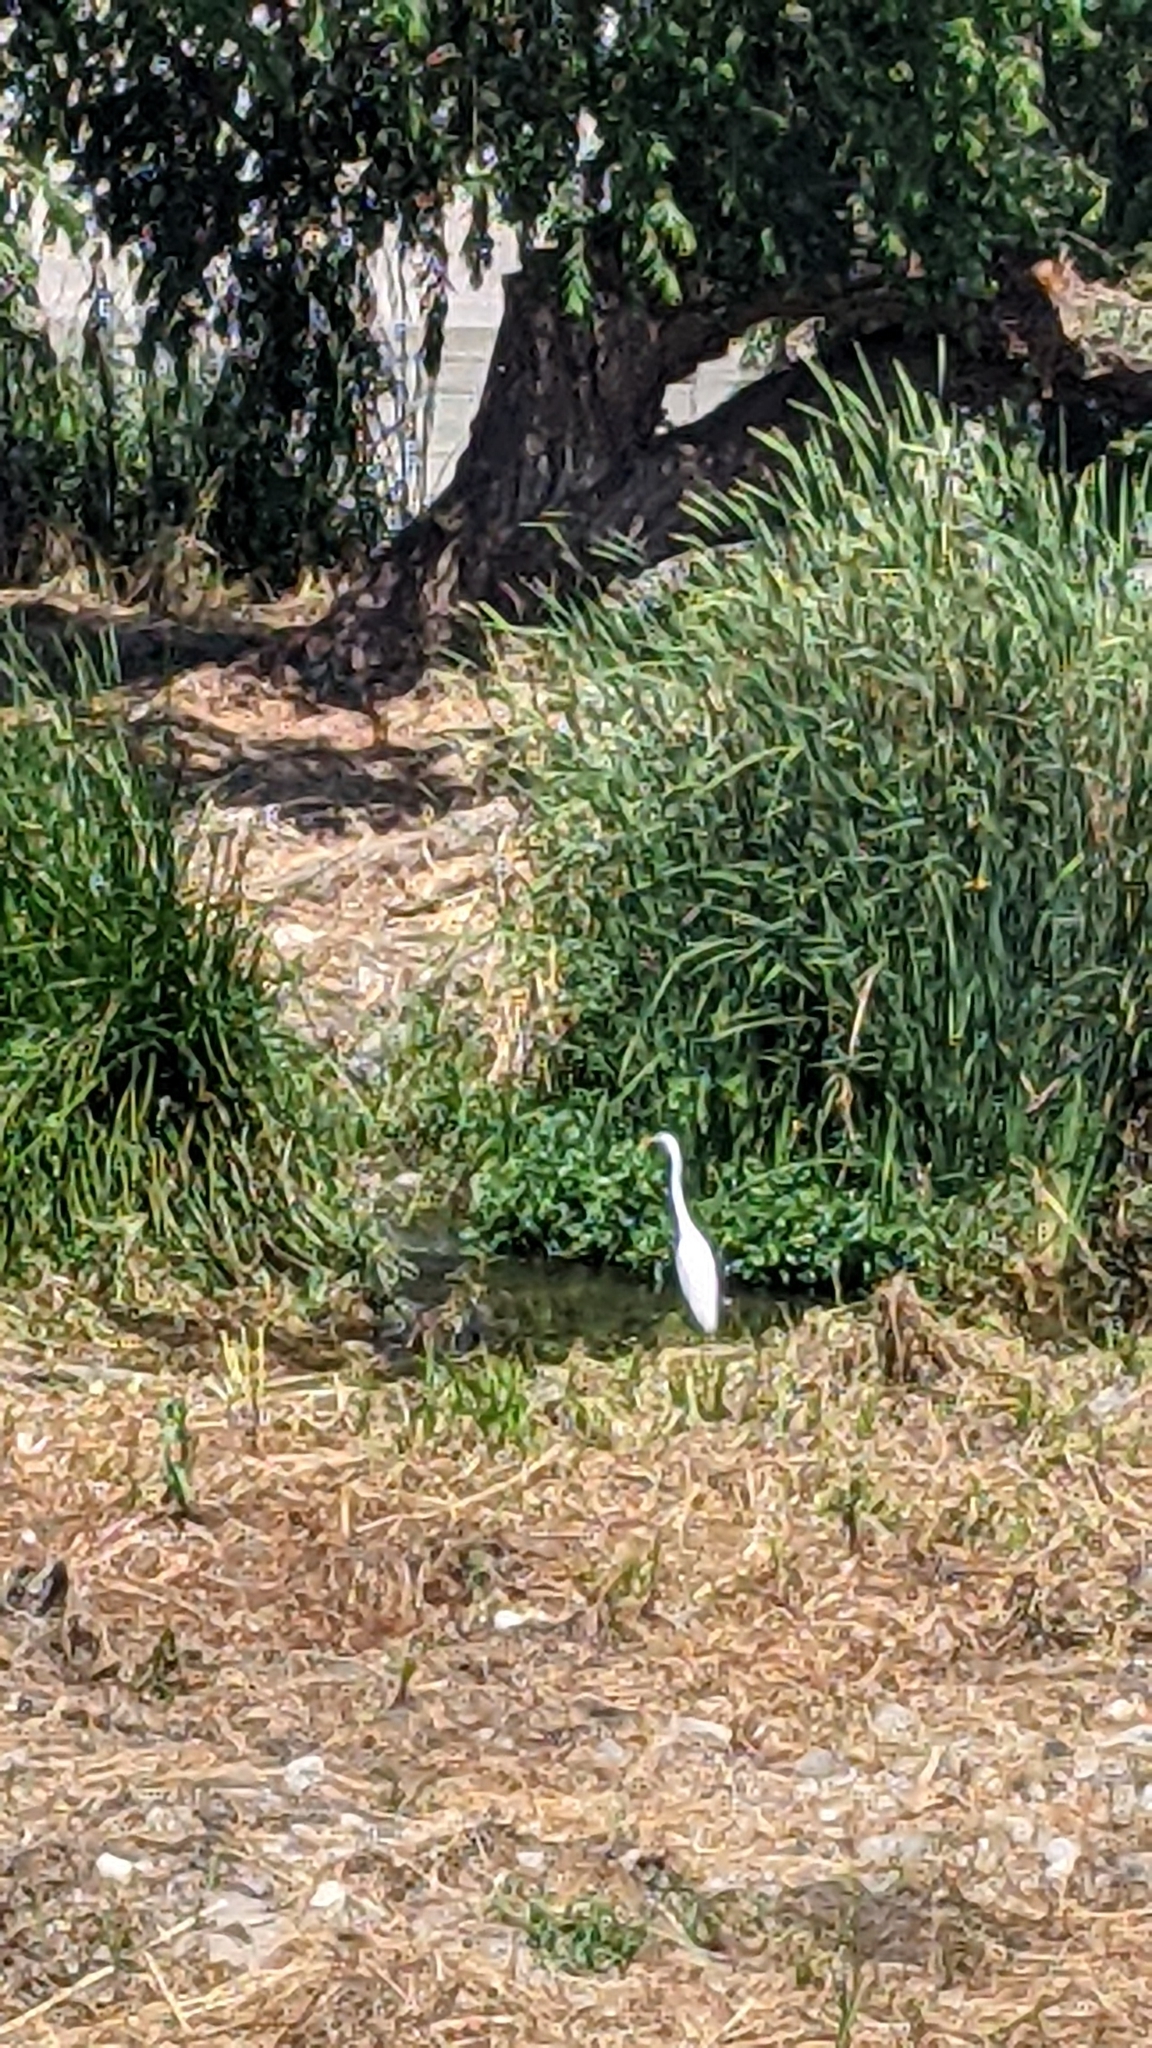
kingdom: Animalia
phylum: Chordata
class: Aves
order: Pelecaniformes
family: Ardeidae
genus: Ardea
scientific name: Ardea alba
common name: Great egret
